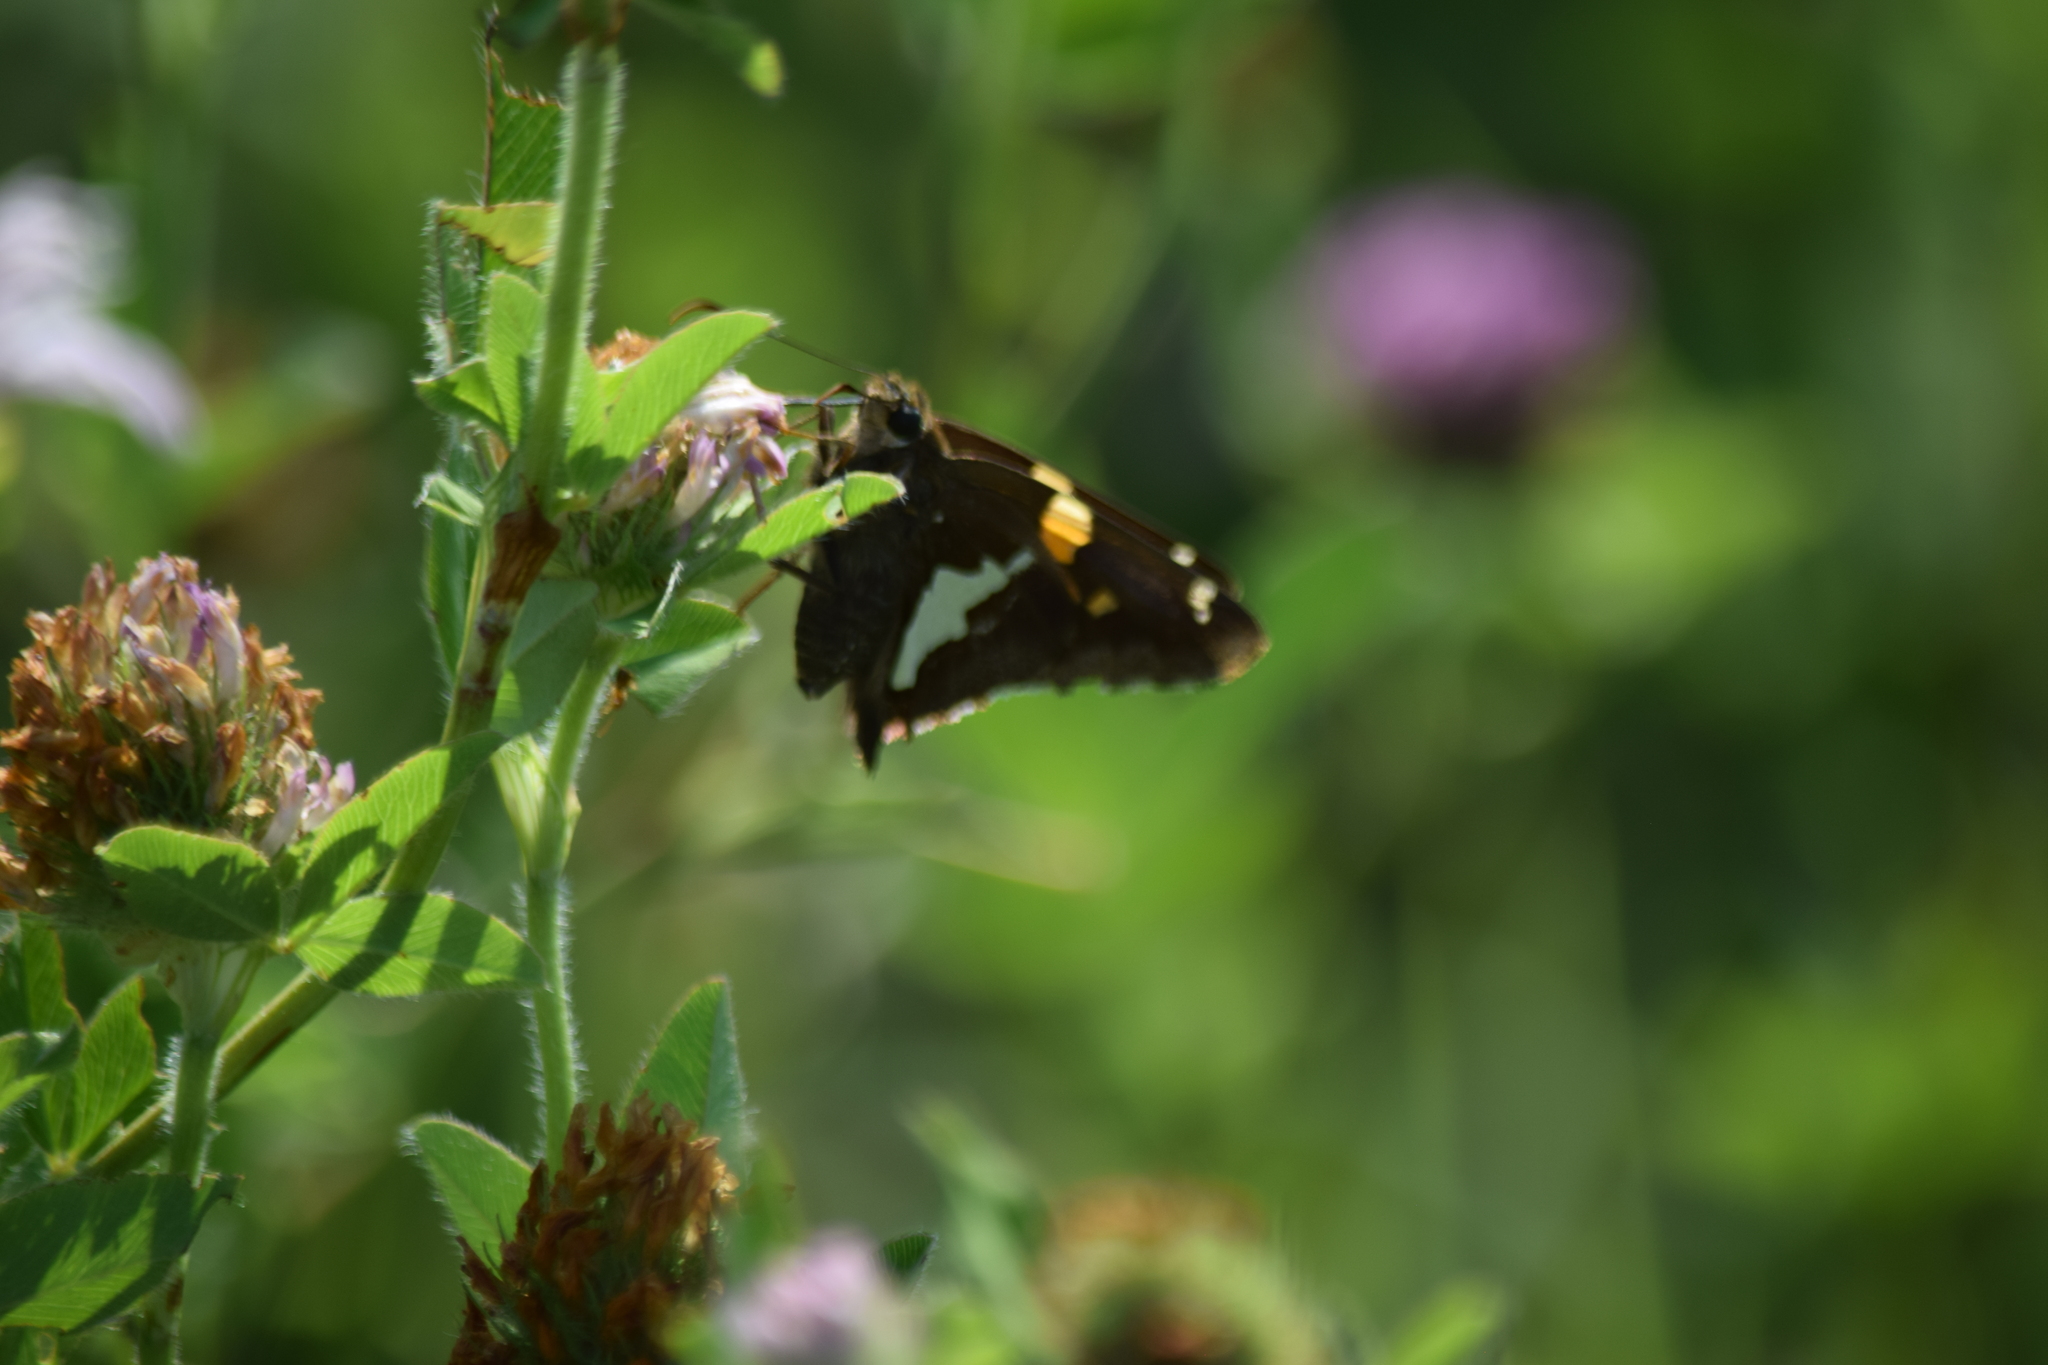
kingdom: Animalia
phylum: Arthropoda
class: Insecta
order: Lepidoptera
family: Hesperiidae
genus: Epargyreus
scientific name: Epargyreus clarus
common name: Silver-spotted skipper
